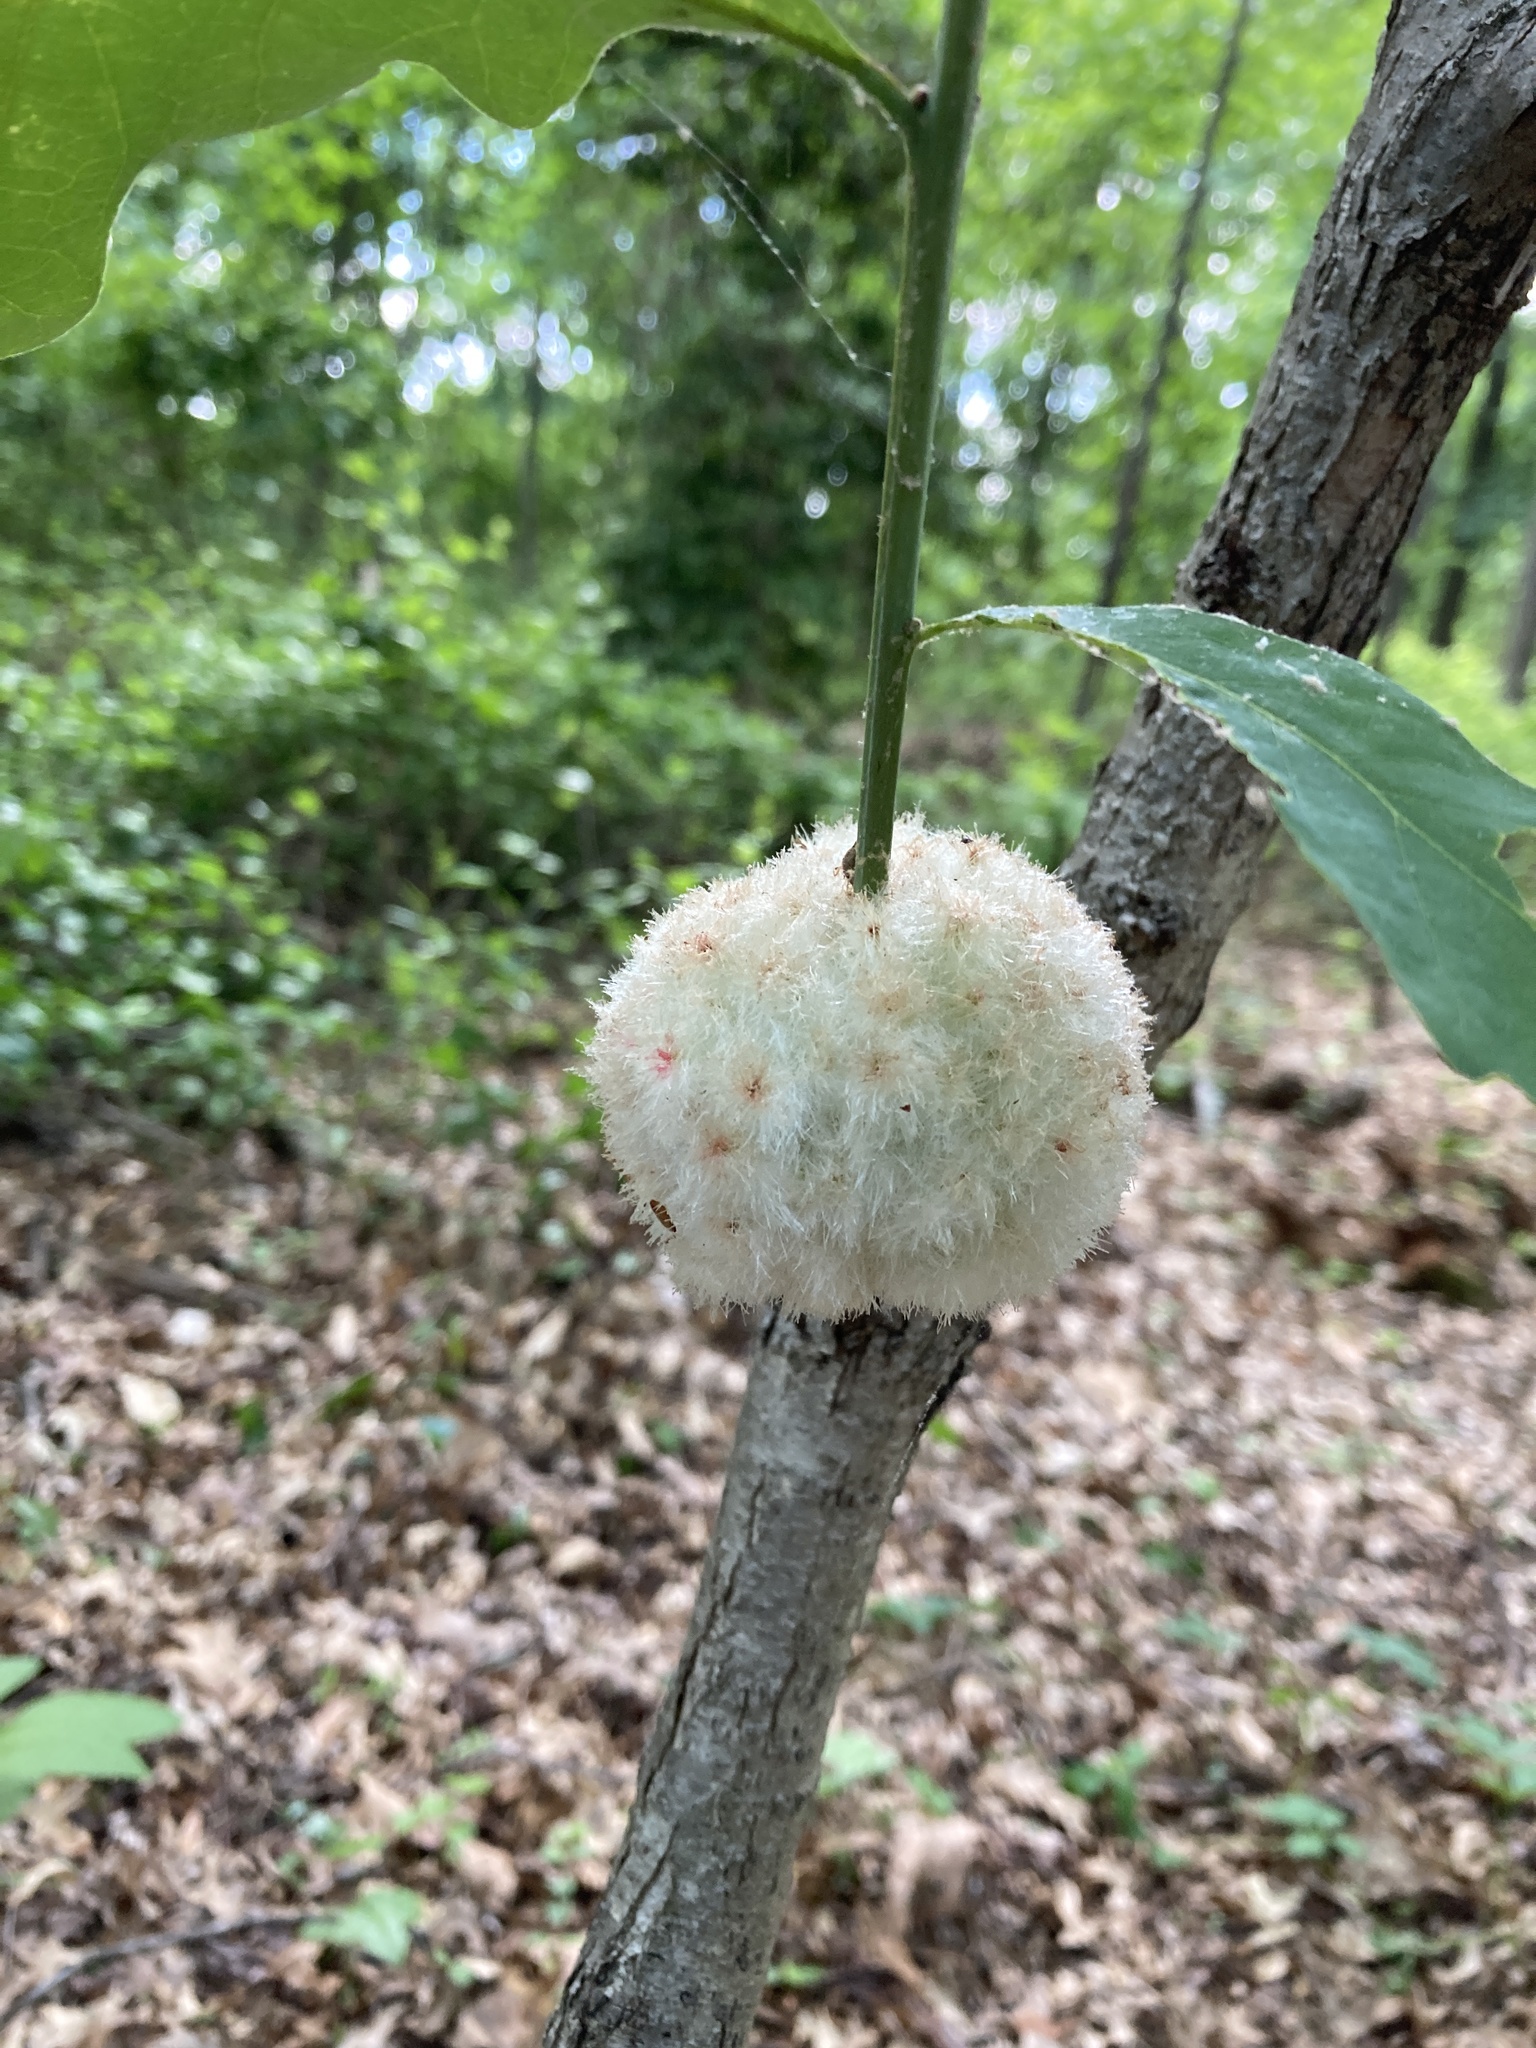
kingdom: Animalia
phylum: Arthropoda
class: Insecta
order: Hymenoptera
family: Cynipidae
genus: Callirhytis
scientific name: Callirhytis
